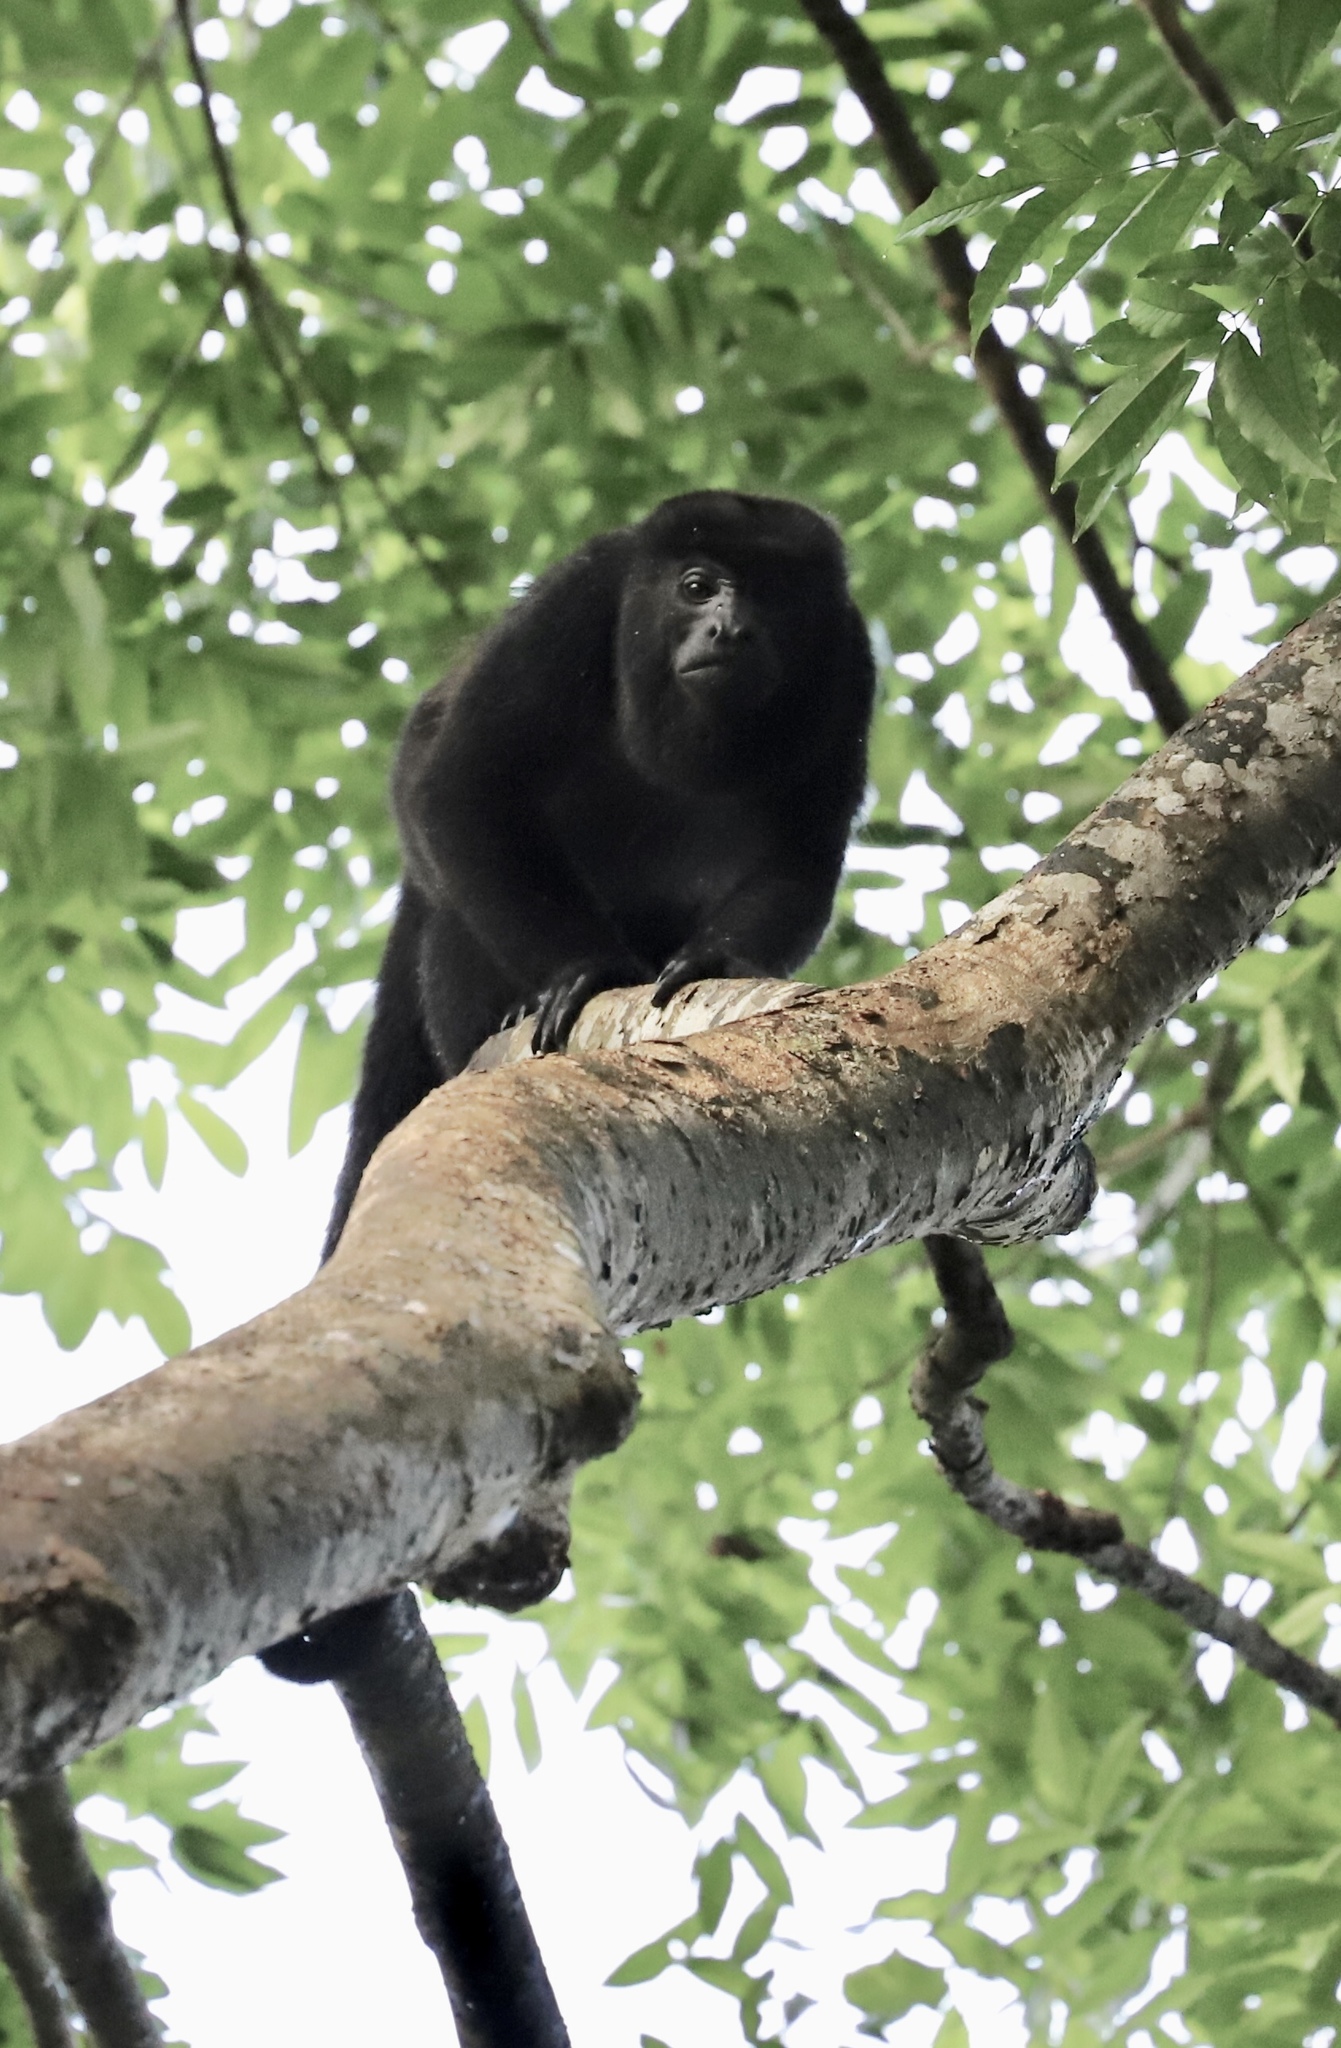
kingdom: Animalia
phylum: Chordata
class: Mammalia
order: Primates
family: Atelidae
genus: Alouatta
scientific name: Alouatta palliata
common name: Mantled howler
